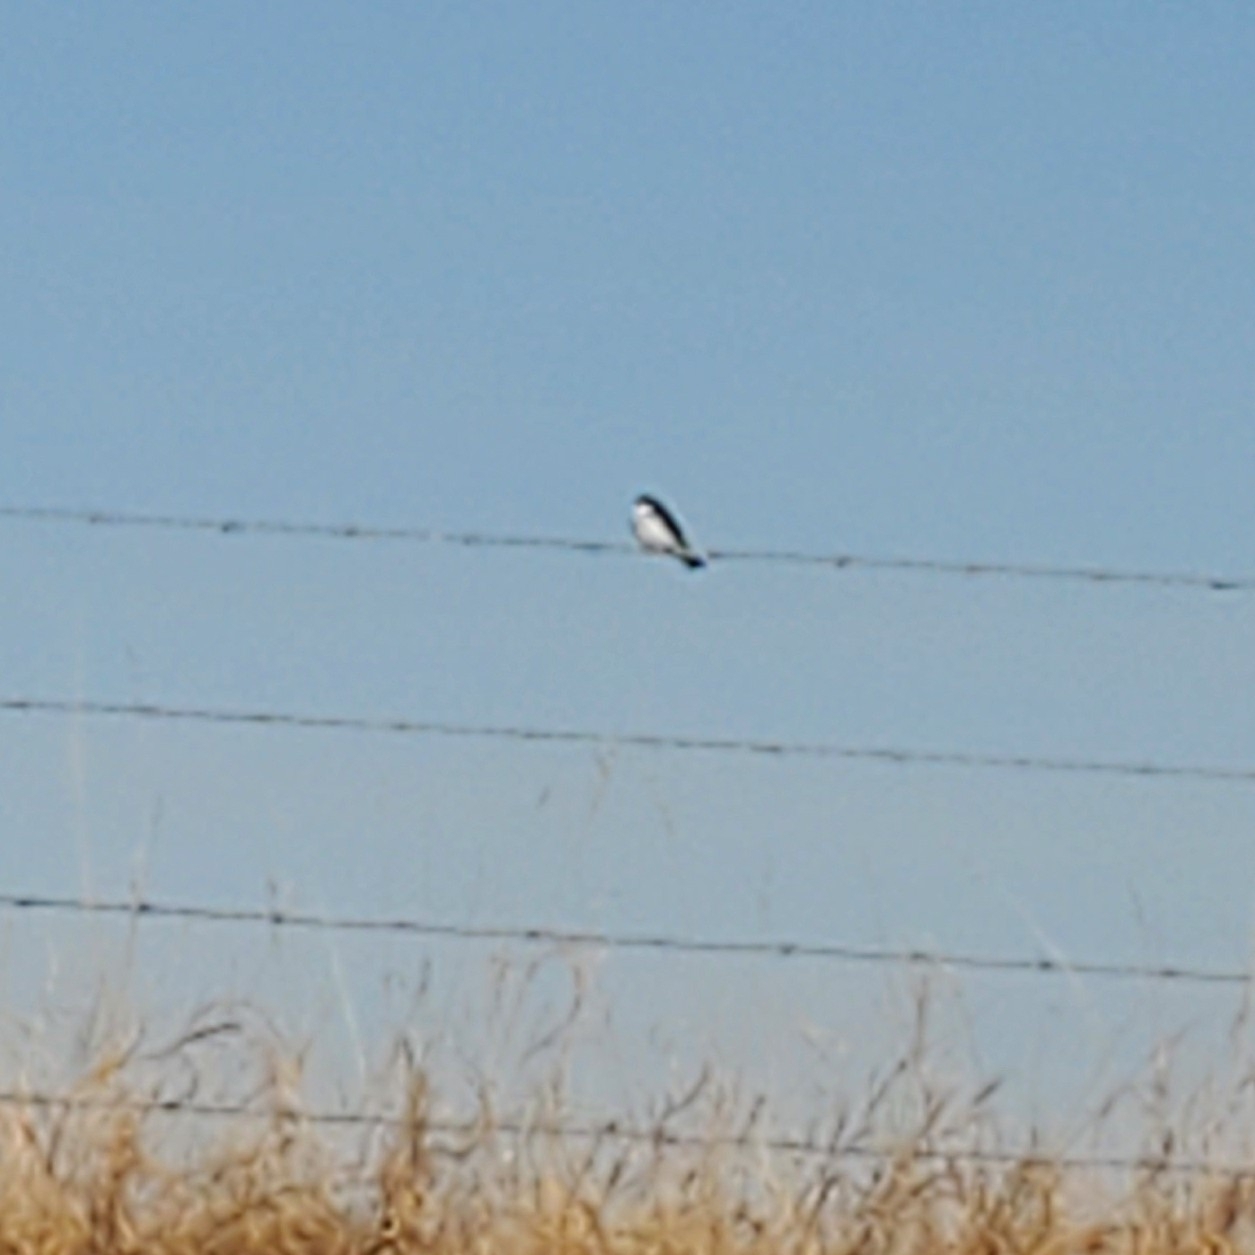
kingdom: Animalia
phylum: Chordata
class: Aves
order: Passeriformes
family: Hirundinidae
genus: Tachycineta
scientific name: Tachycineta bicolor
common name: Tree swallow
